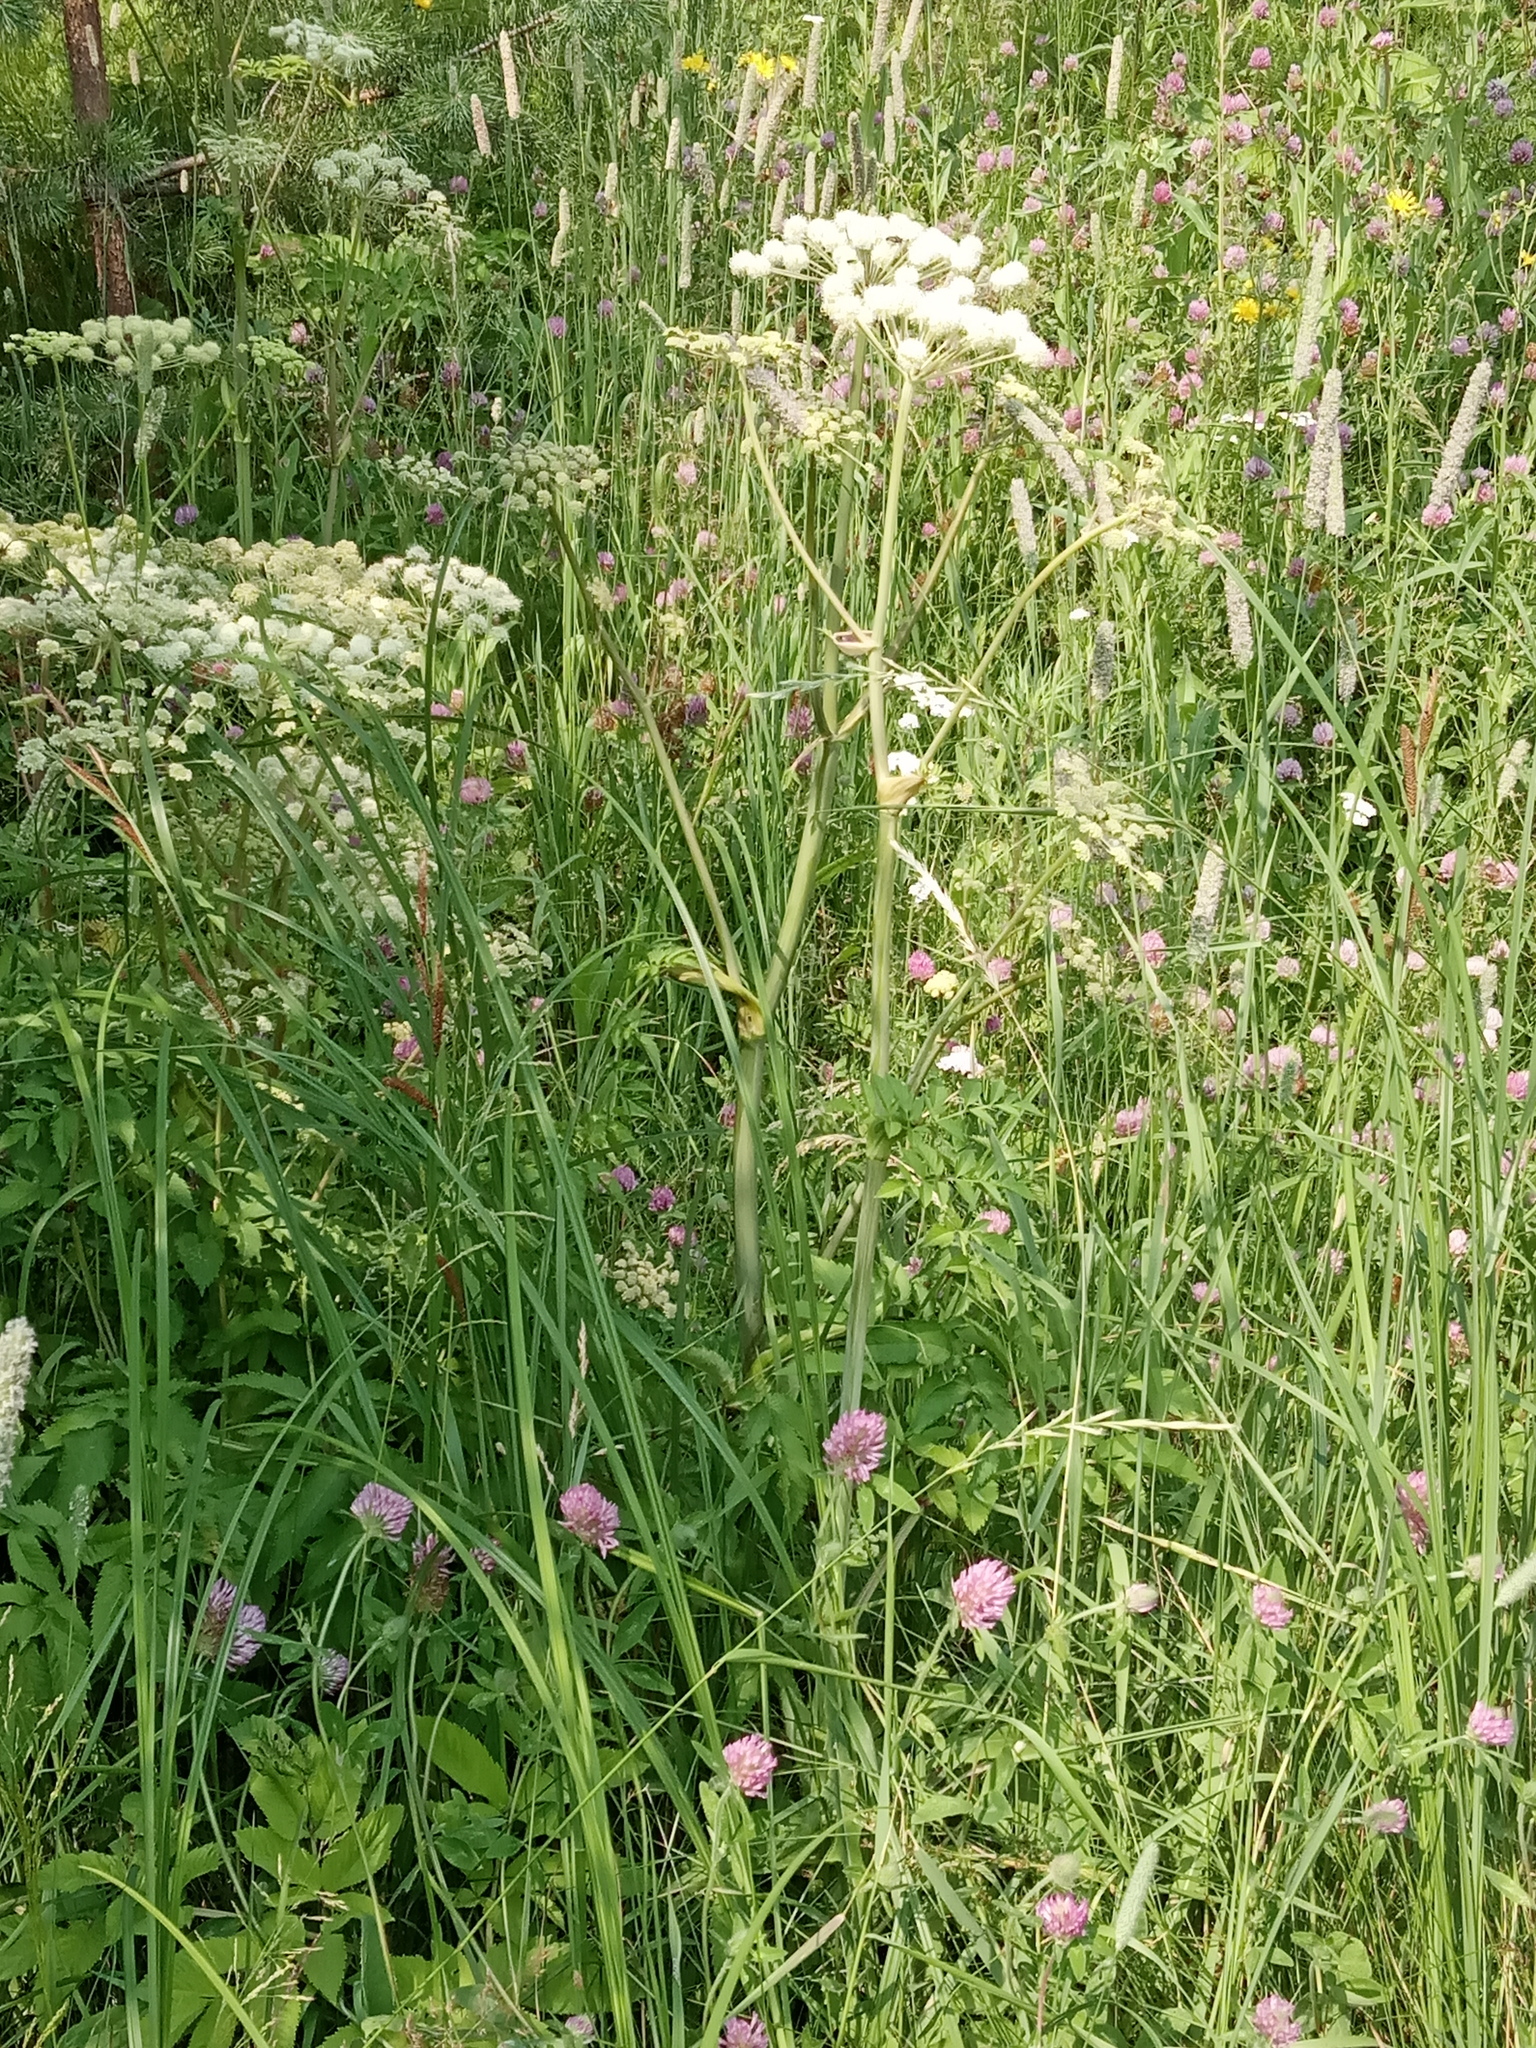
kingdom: Plantae
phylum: Tracheophyta
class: Magnoliopsida
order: Apiales
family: Apiaceae
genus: Angelica
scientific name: Angelica sylvestris
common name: Wild angelica
